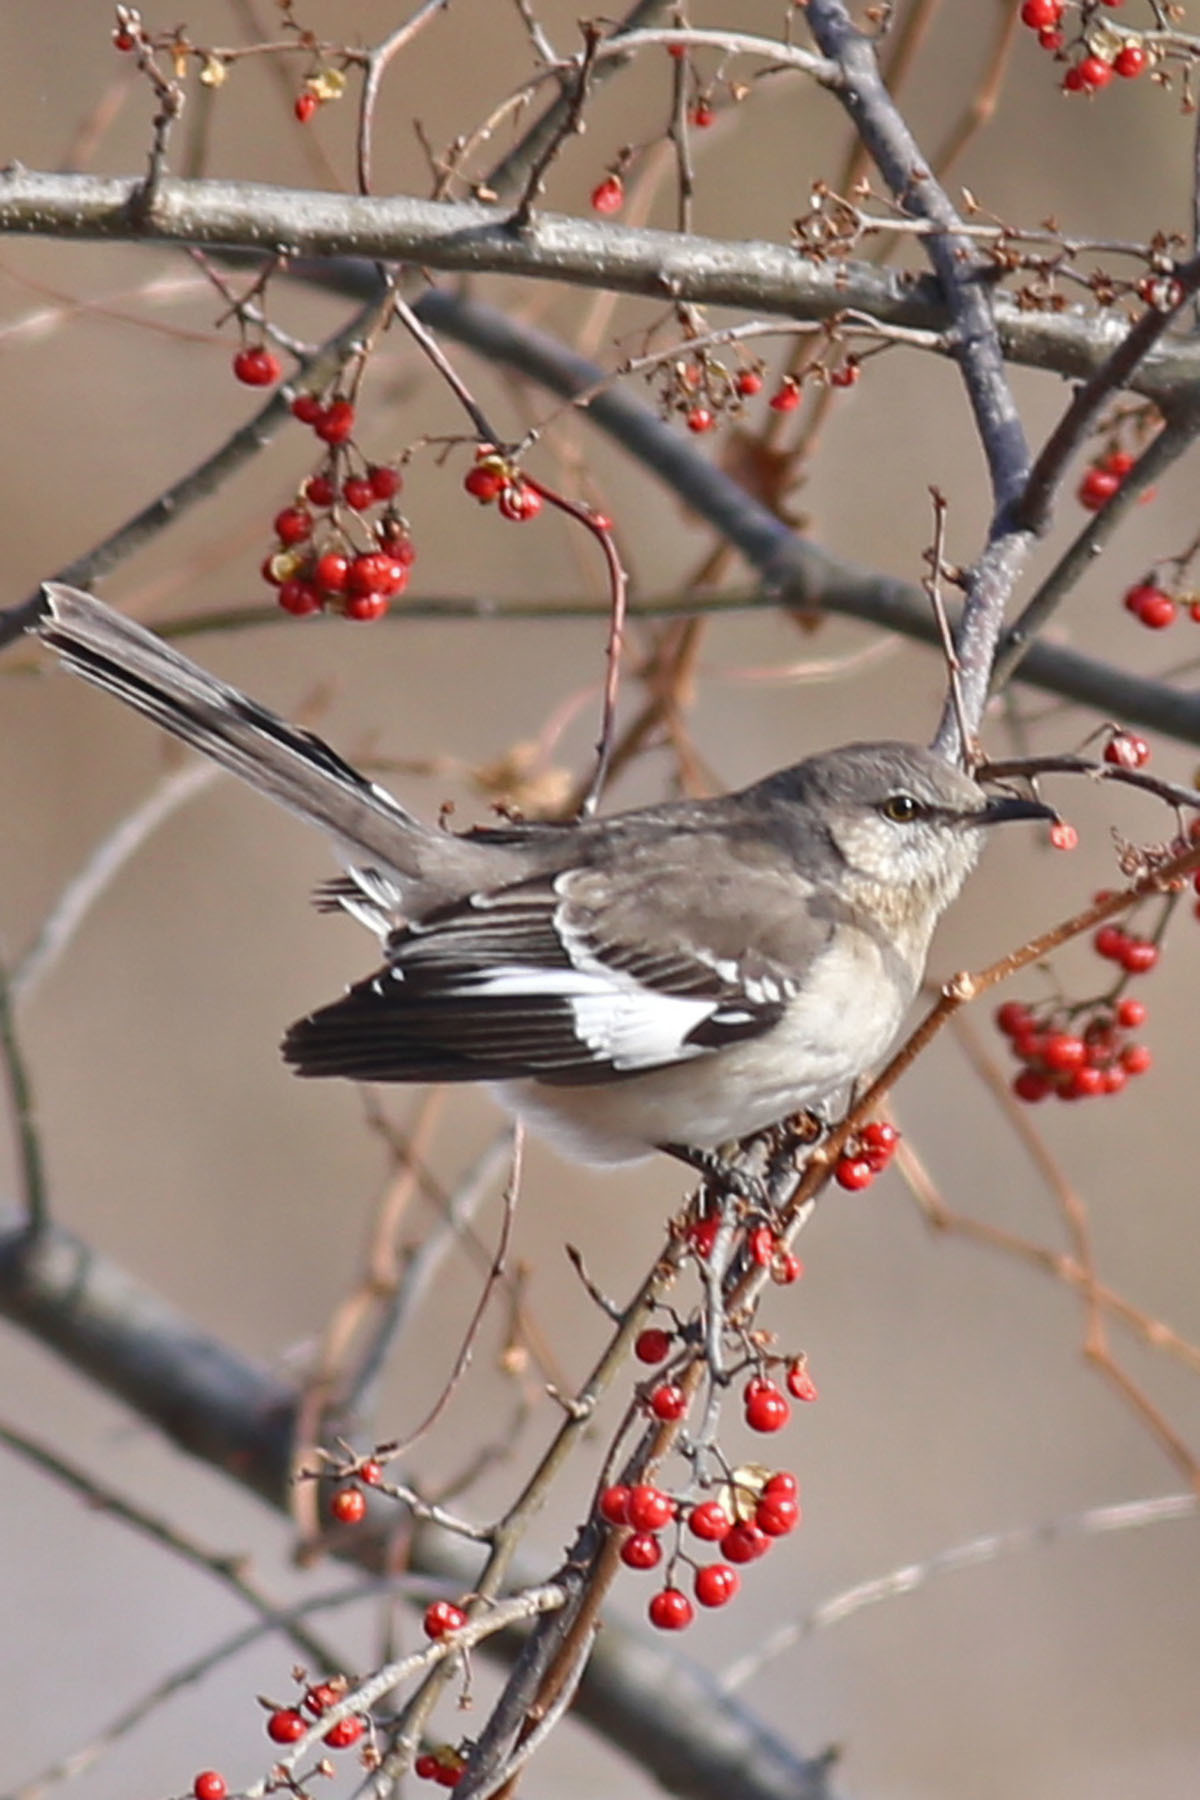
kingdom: Animalia
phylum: Chordata
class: Aves
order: Passeriformes
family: Mimidae
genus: Mimus
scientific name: Mimus polyglottos
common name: Northern mockingbird
